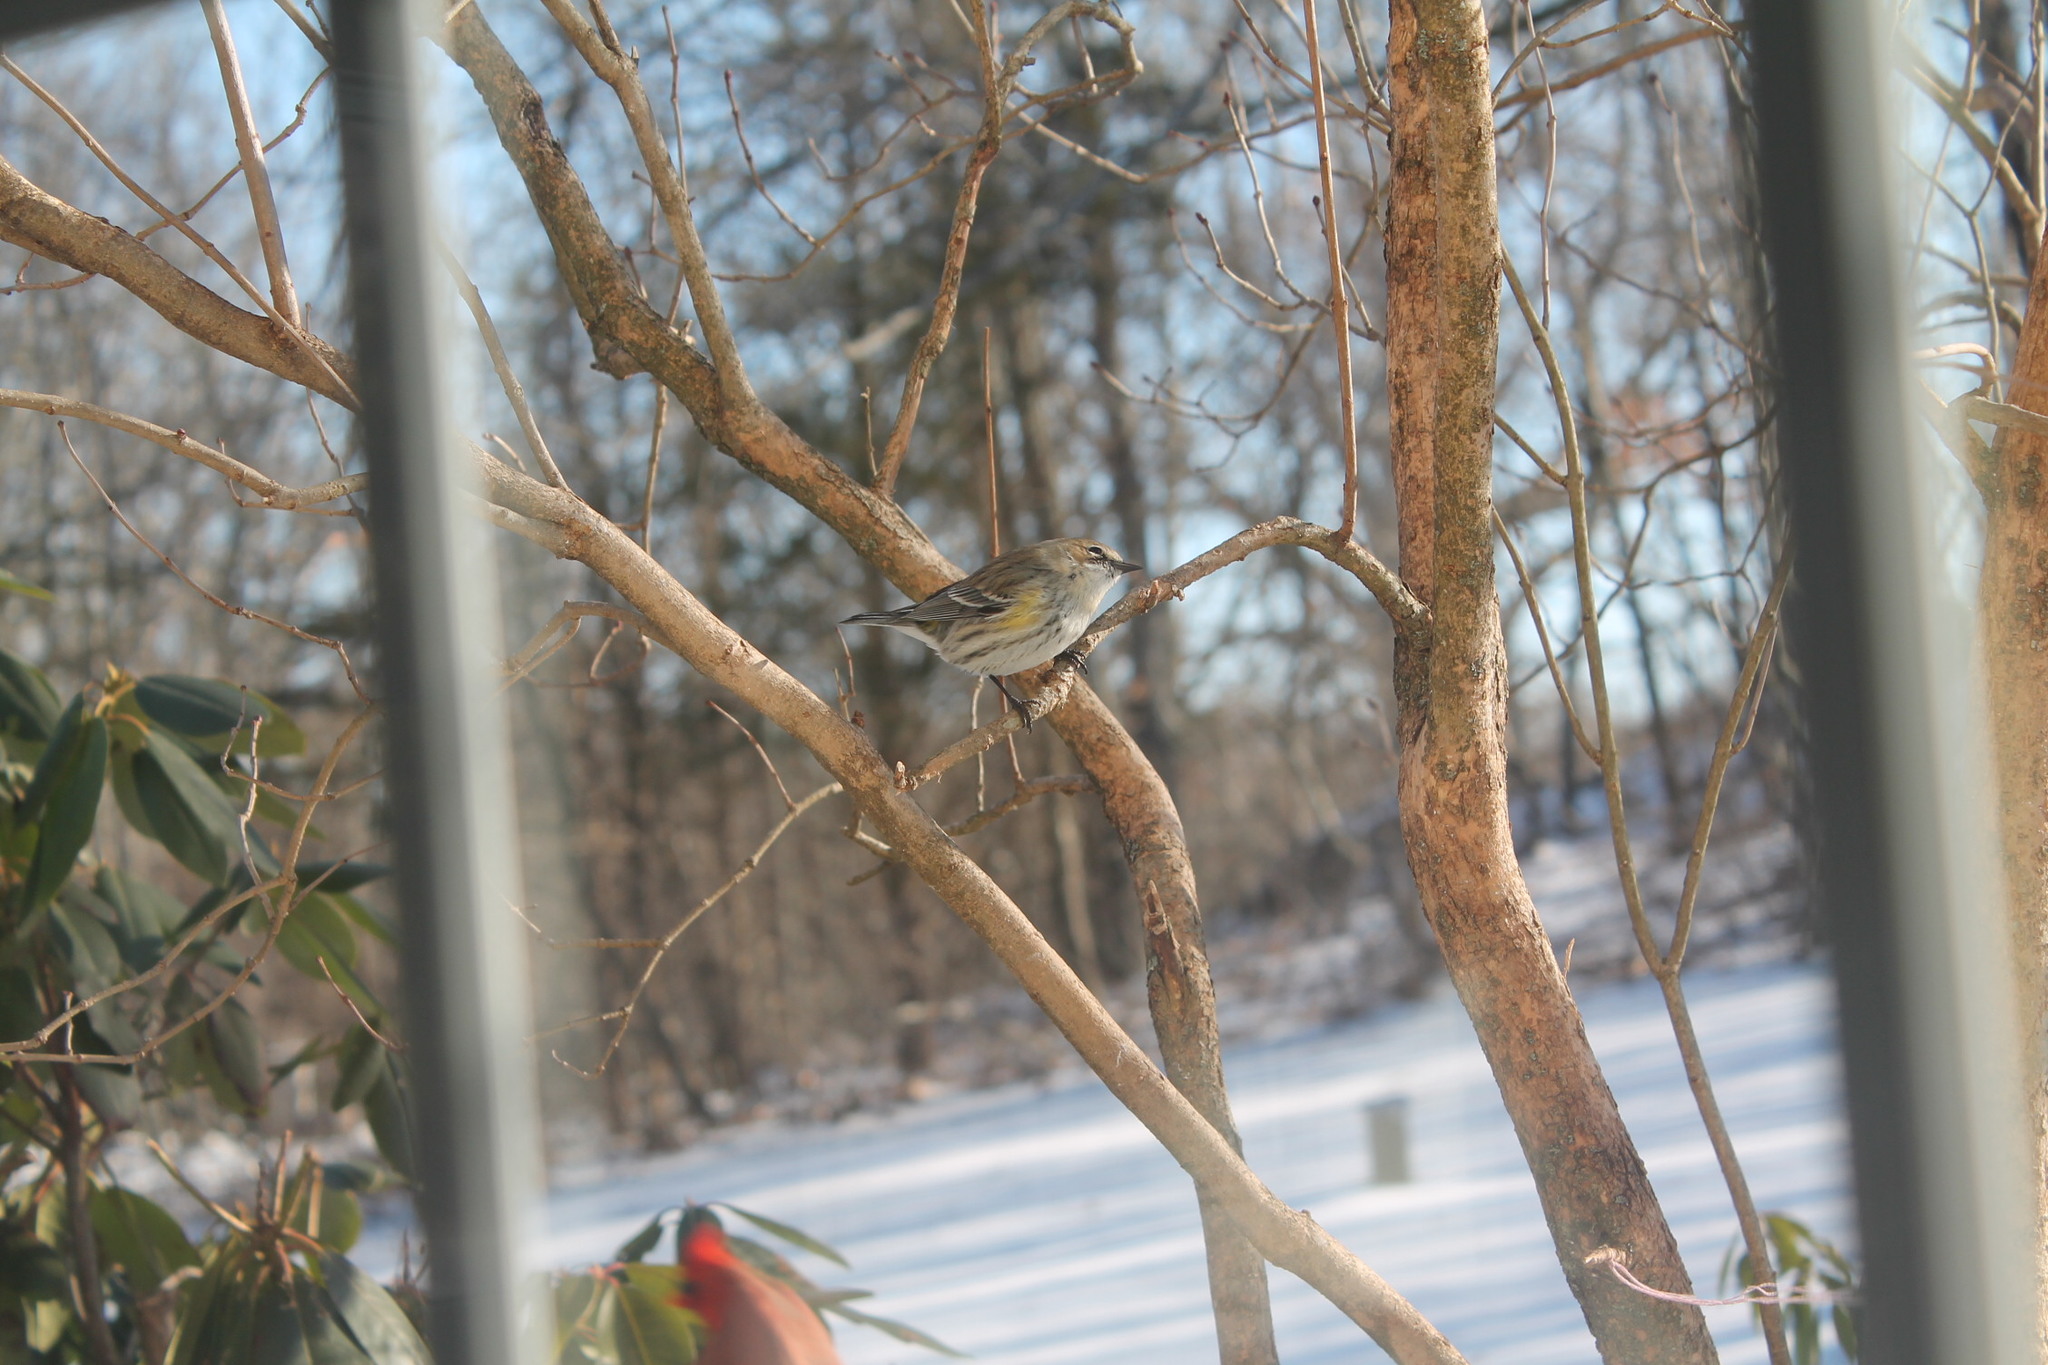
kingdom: Animalia
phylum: Chordata
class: Aves
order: Passeriformes
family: Parulidae
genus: Setophaga
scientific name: Setophaga coronata
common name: Myrtle warbler
